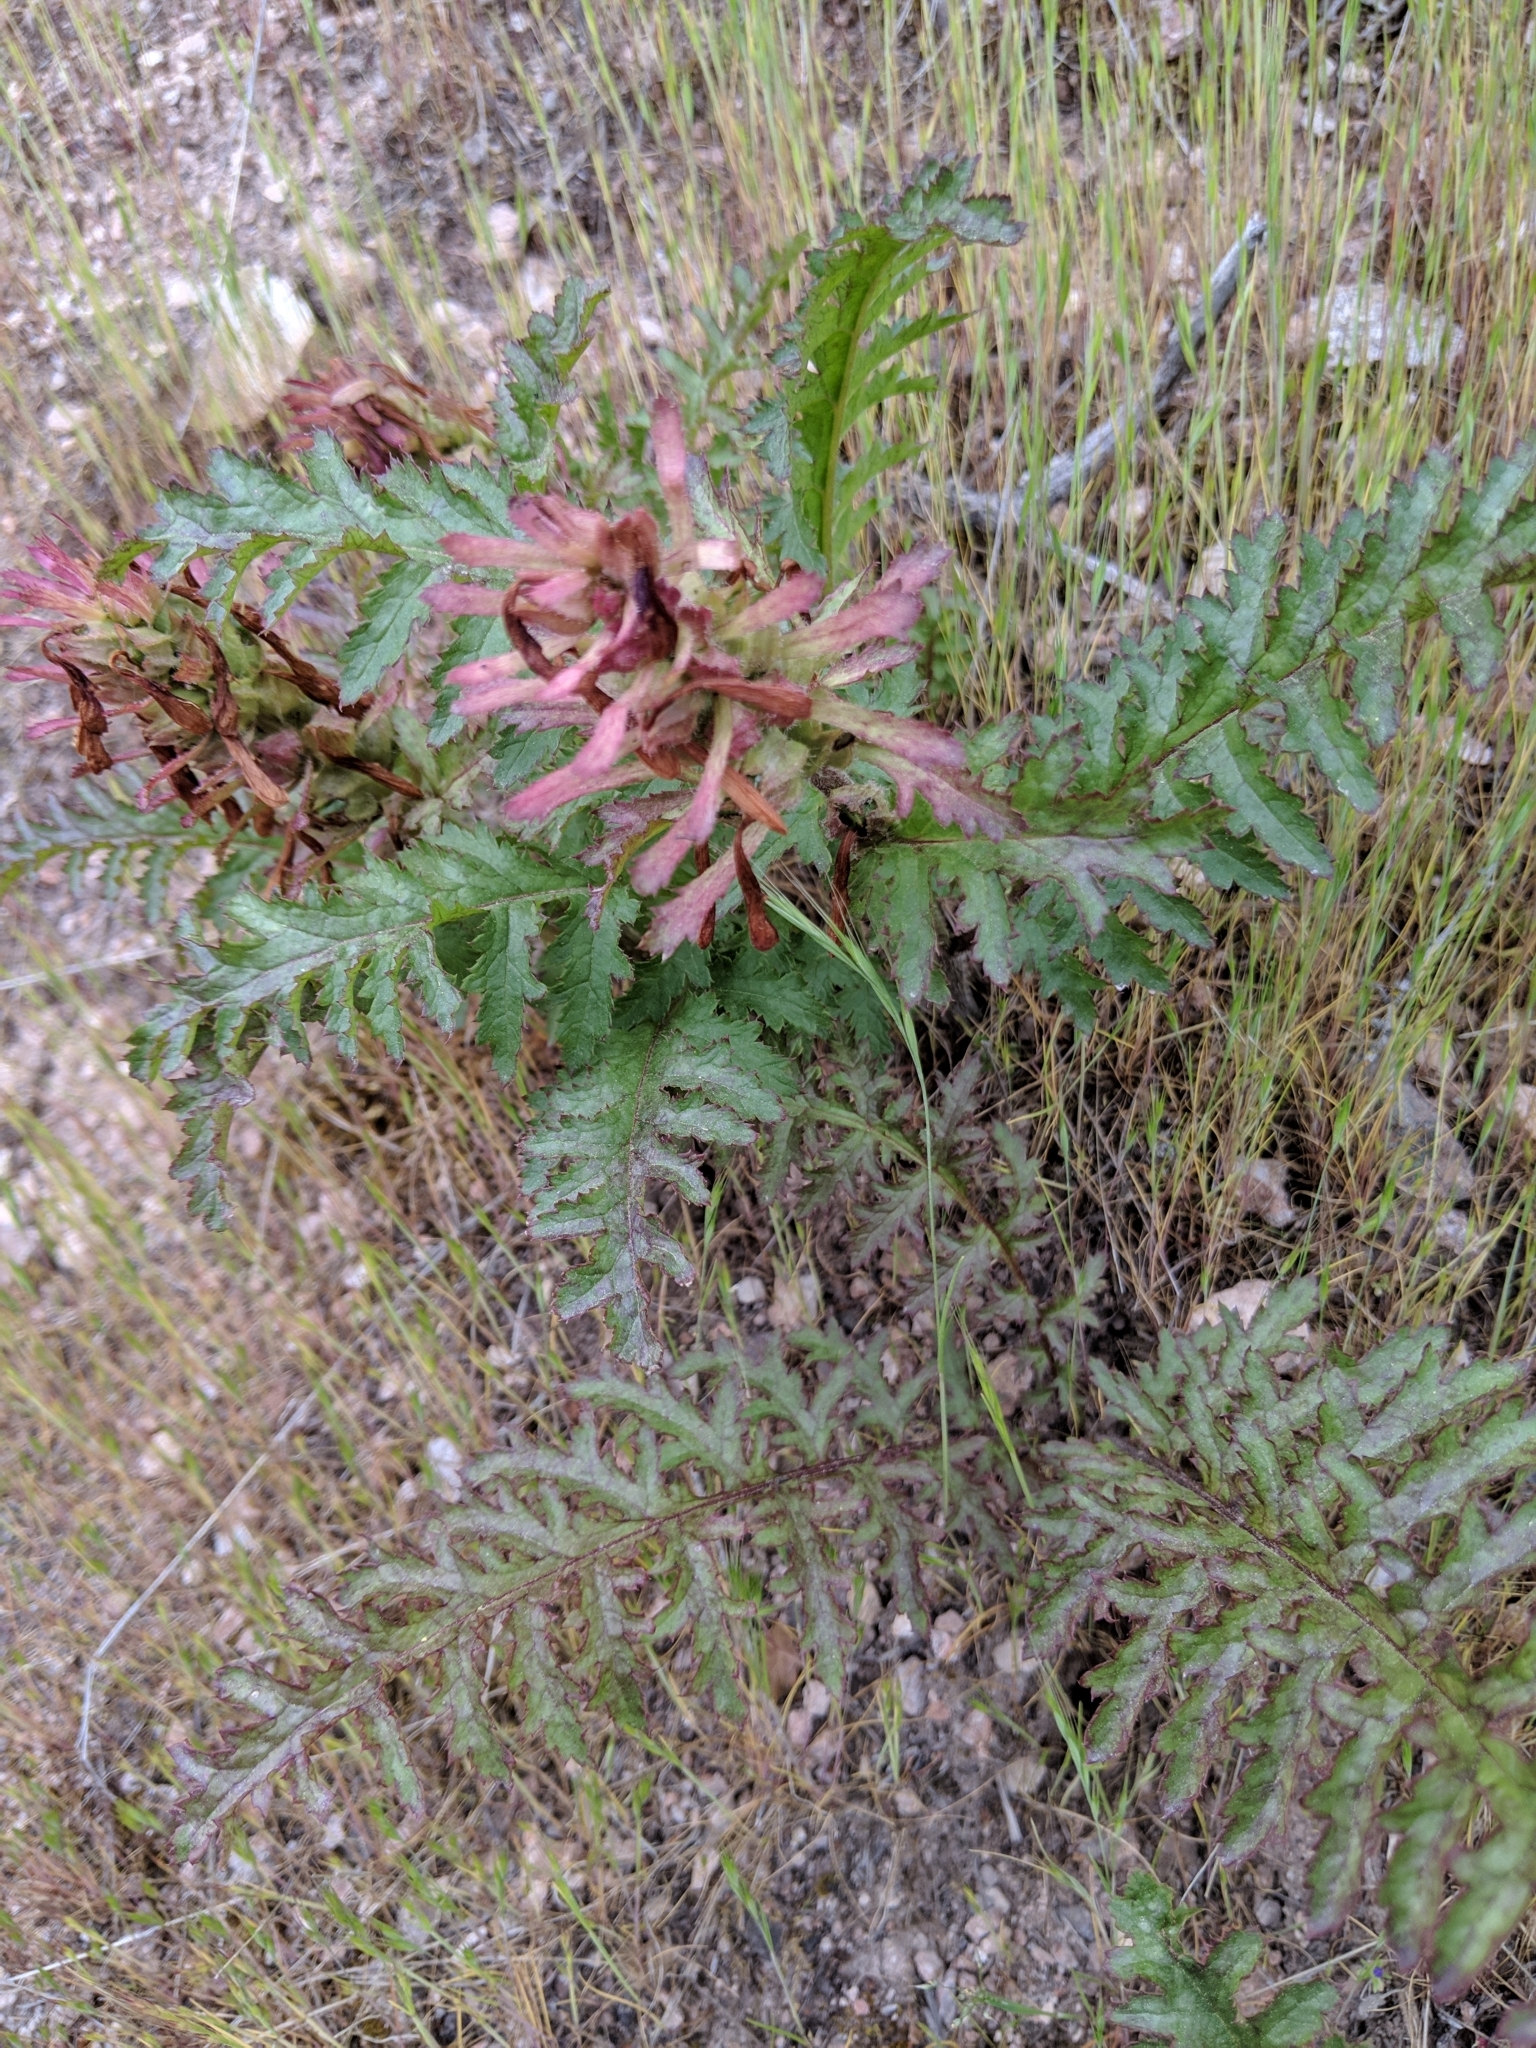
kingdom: Plantae
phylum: Tracheophyta
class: Magnoliopsida
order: Lamiales
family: Orobanchaceae
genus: Pedicularis
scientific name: Pedicularis densiflora
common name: Indian warrior
